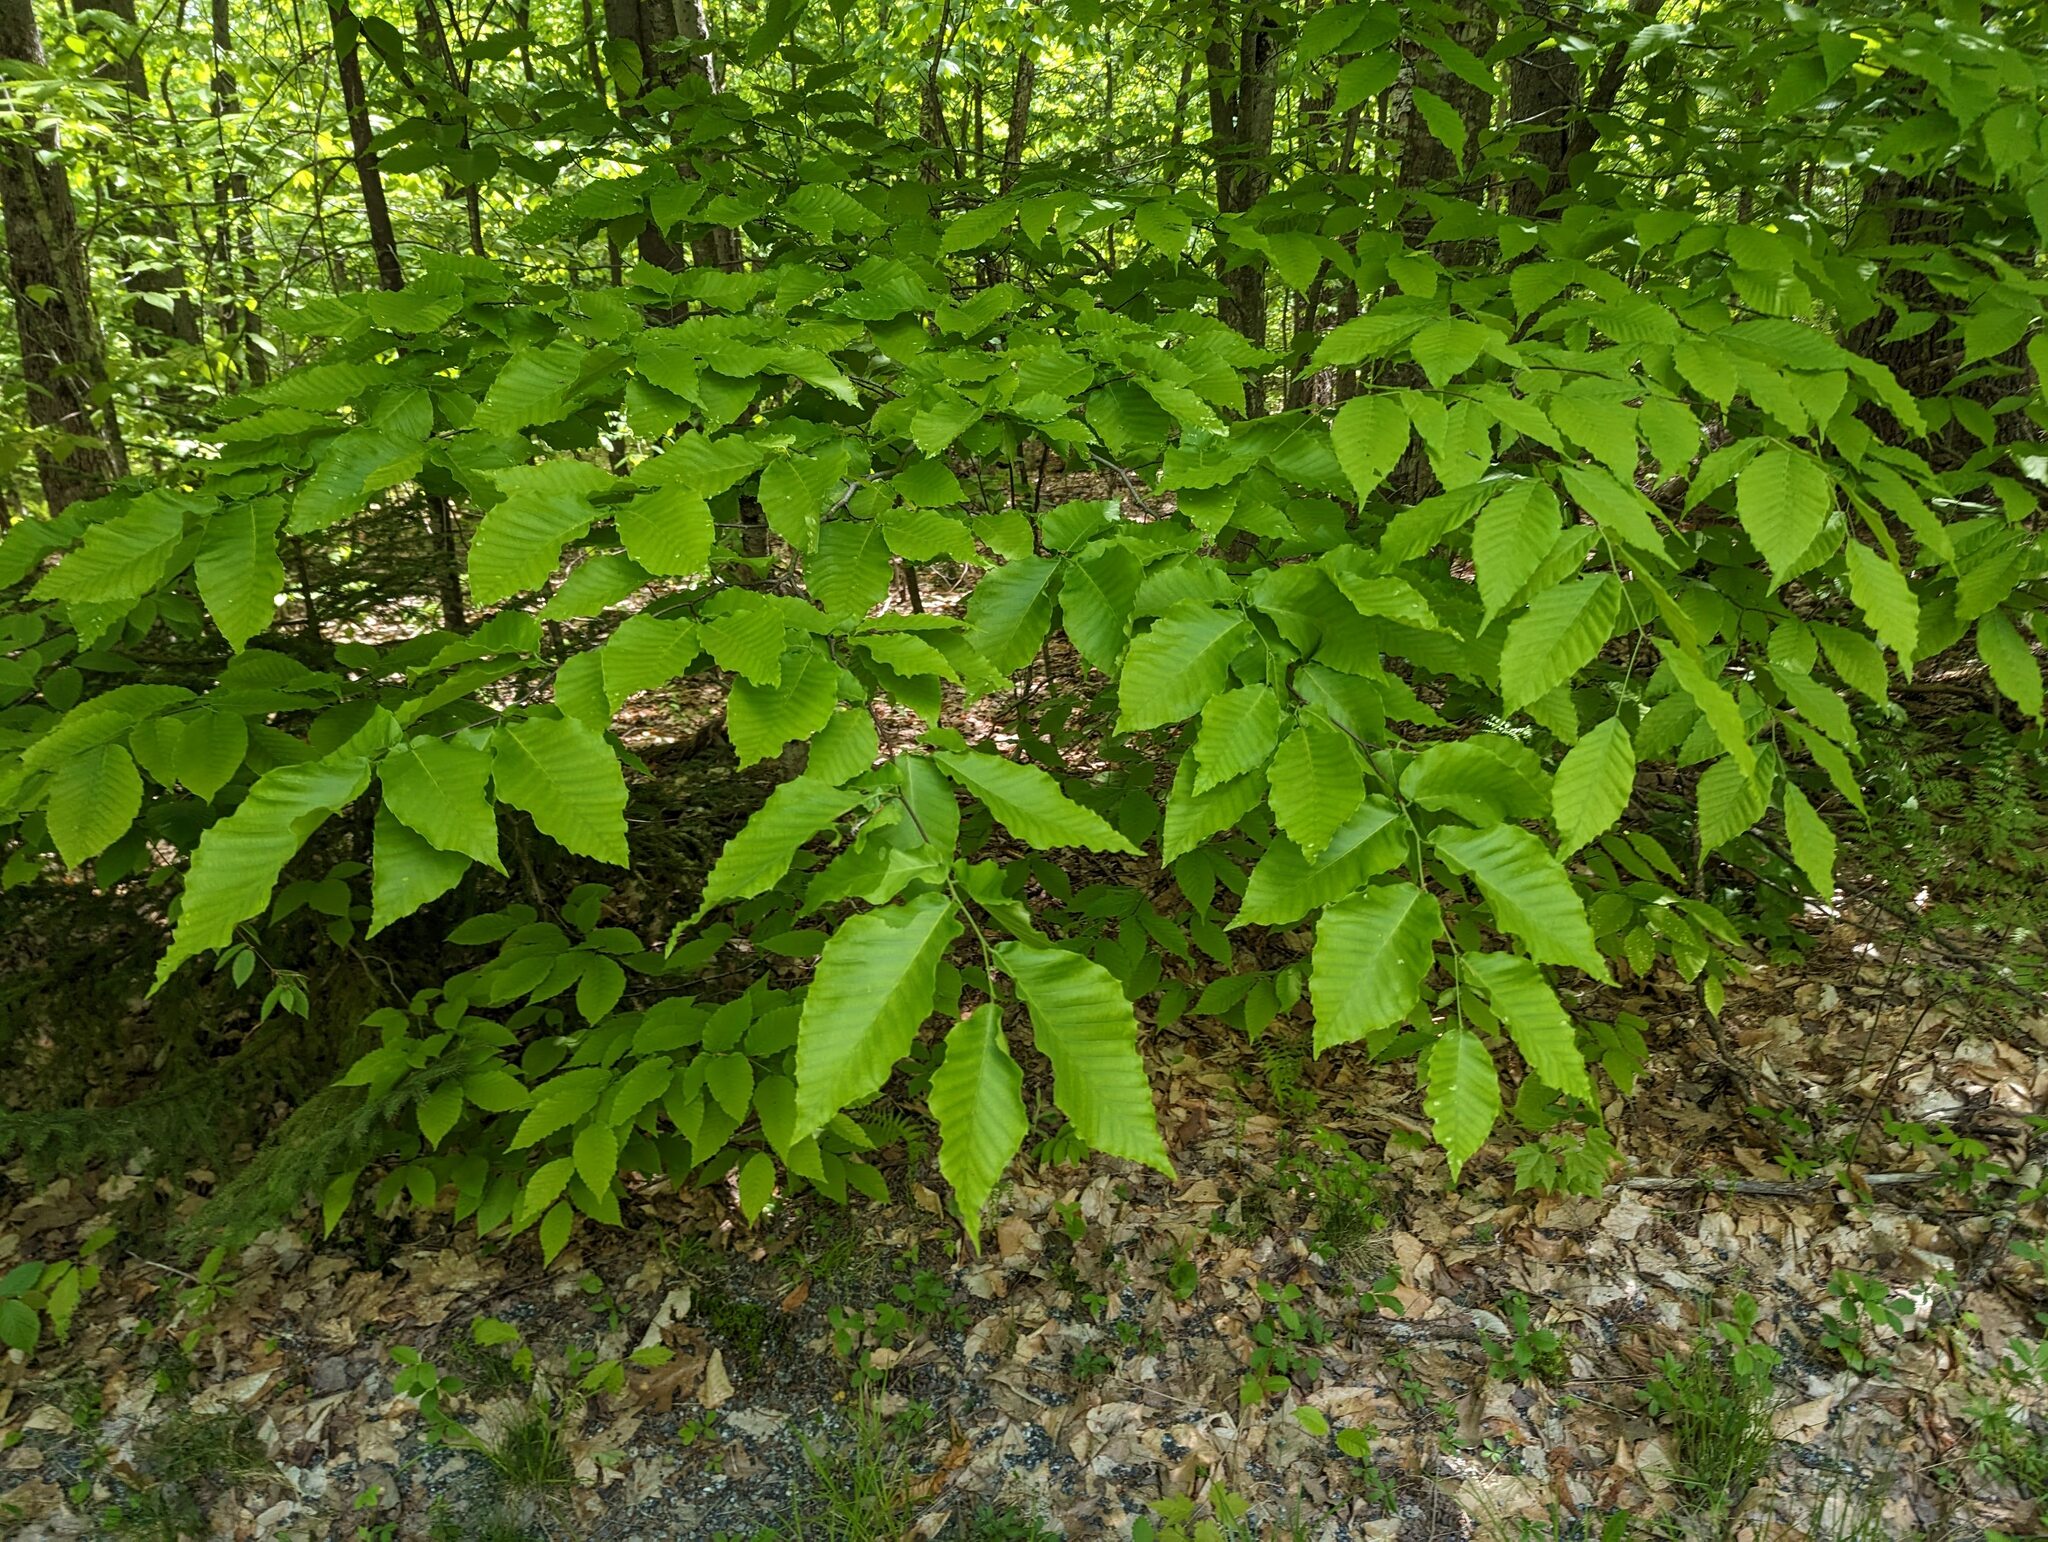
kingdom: Plantae
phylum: Tracheophyta
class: Magnoliopsida
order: Fagales
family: Fagaceae
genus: Fagus
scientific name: Fagus grandifolia
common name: American beech
